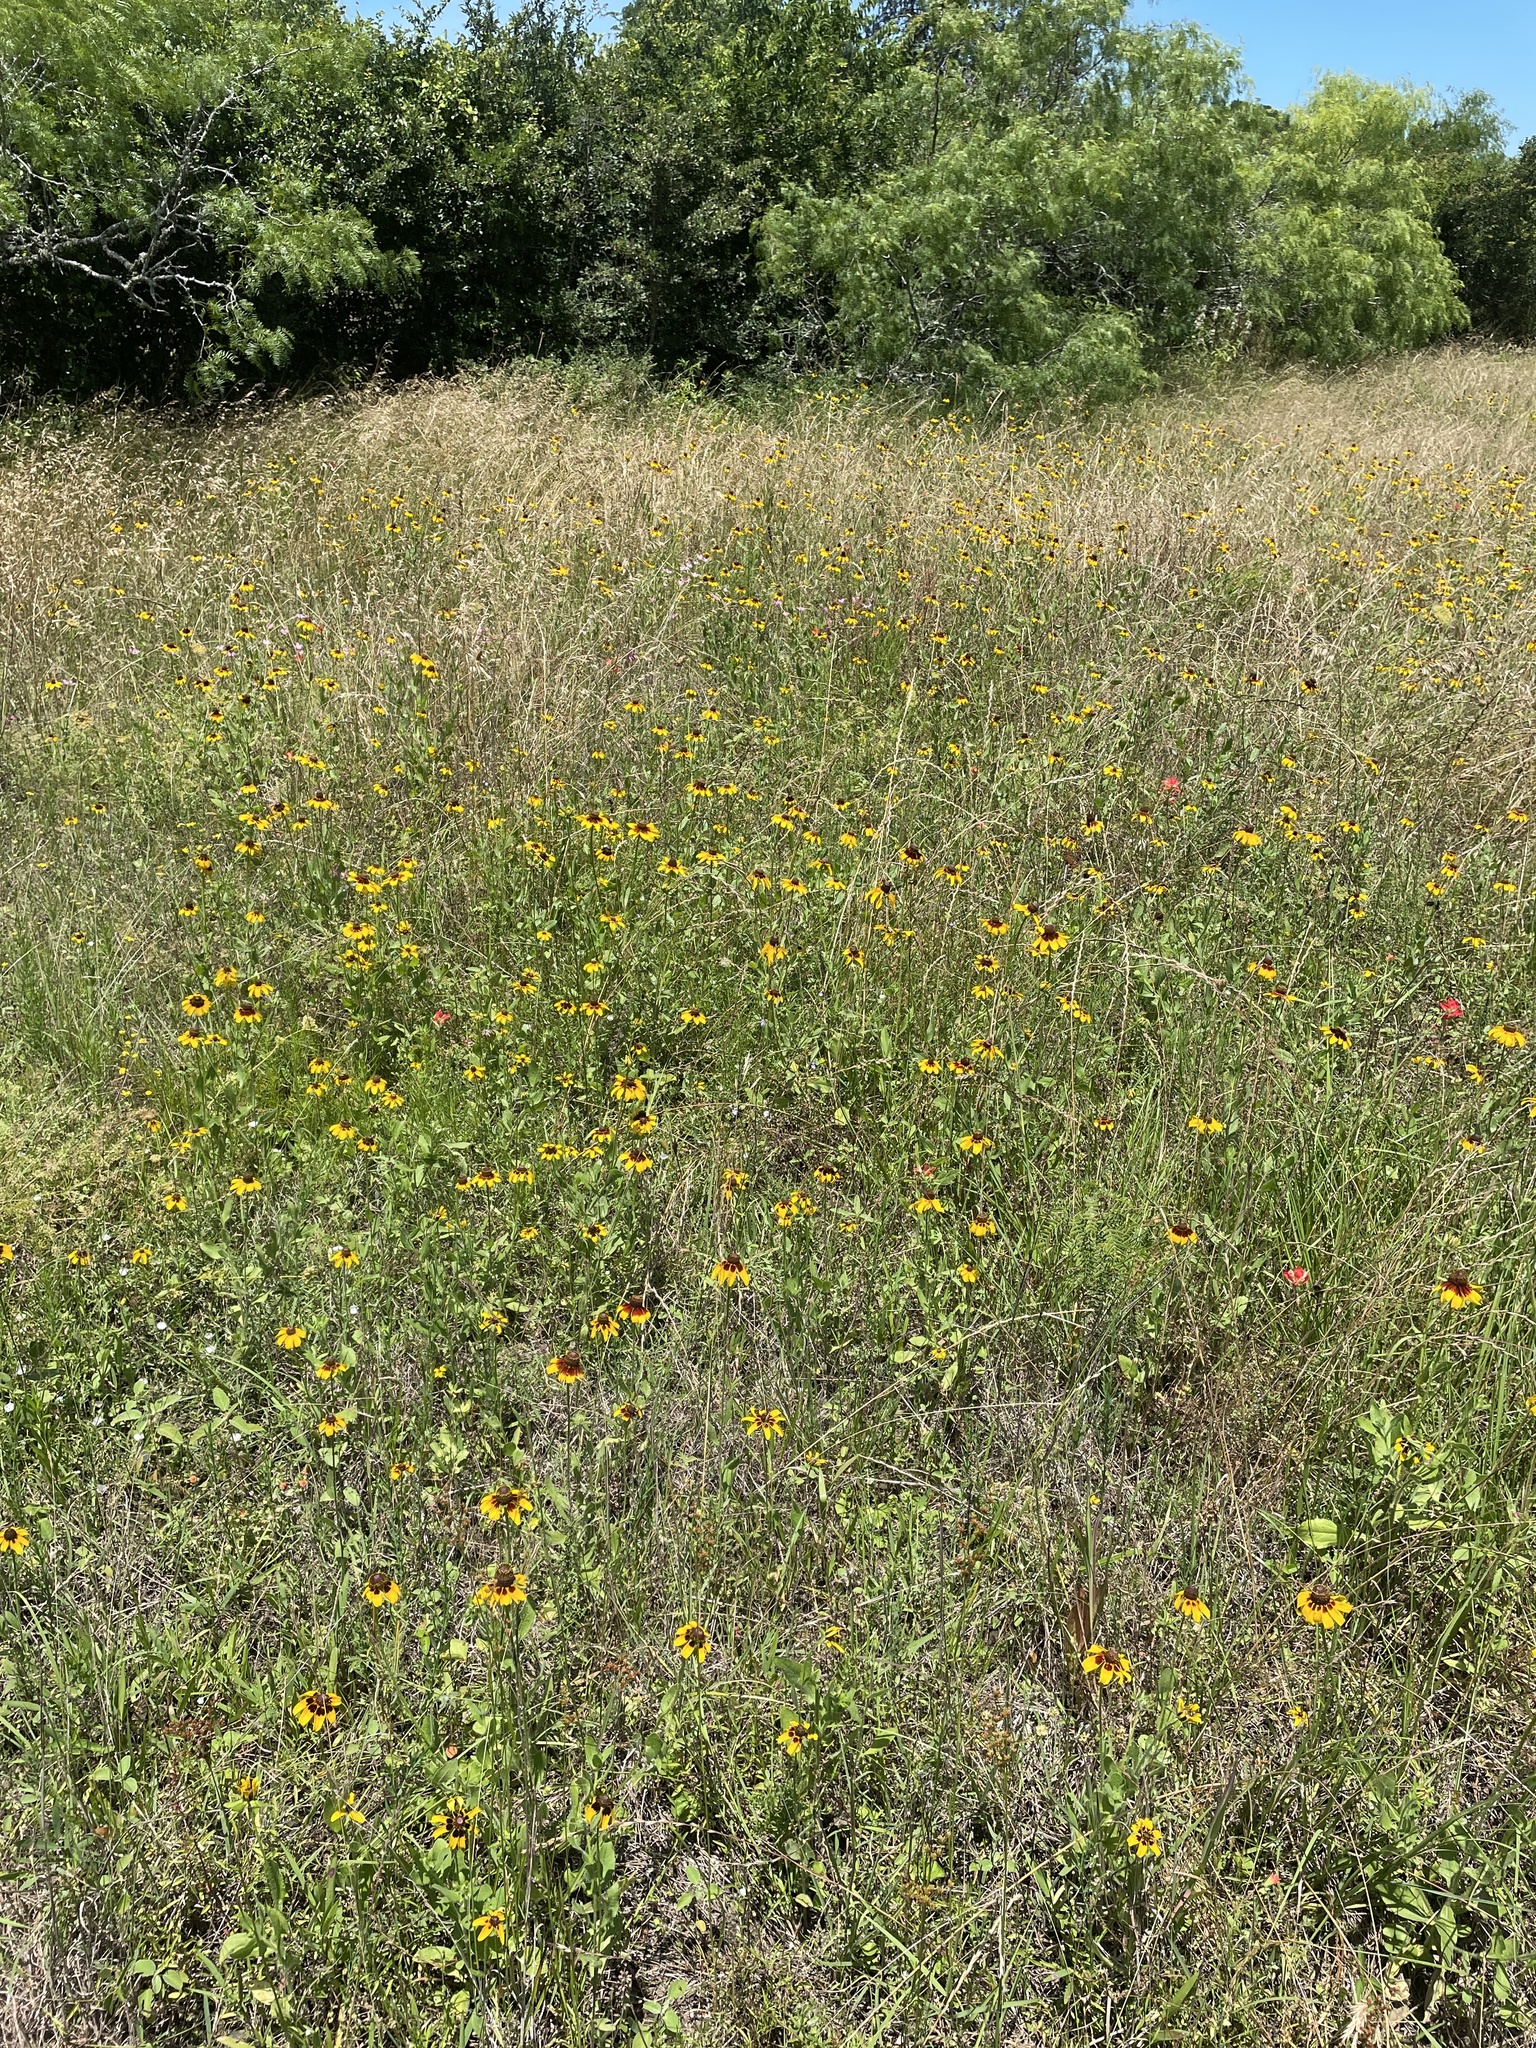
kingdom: Plantae
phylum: Tracheophyta
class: Magnoliopsida
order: Asterales
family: Asteraceae
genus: Rudbeckia
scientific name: Rudbeckia hirta
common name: Black-eyed-susan
